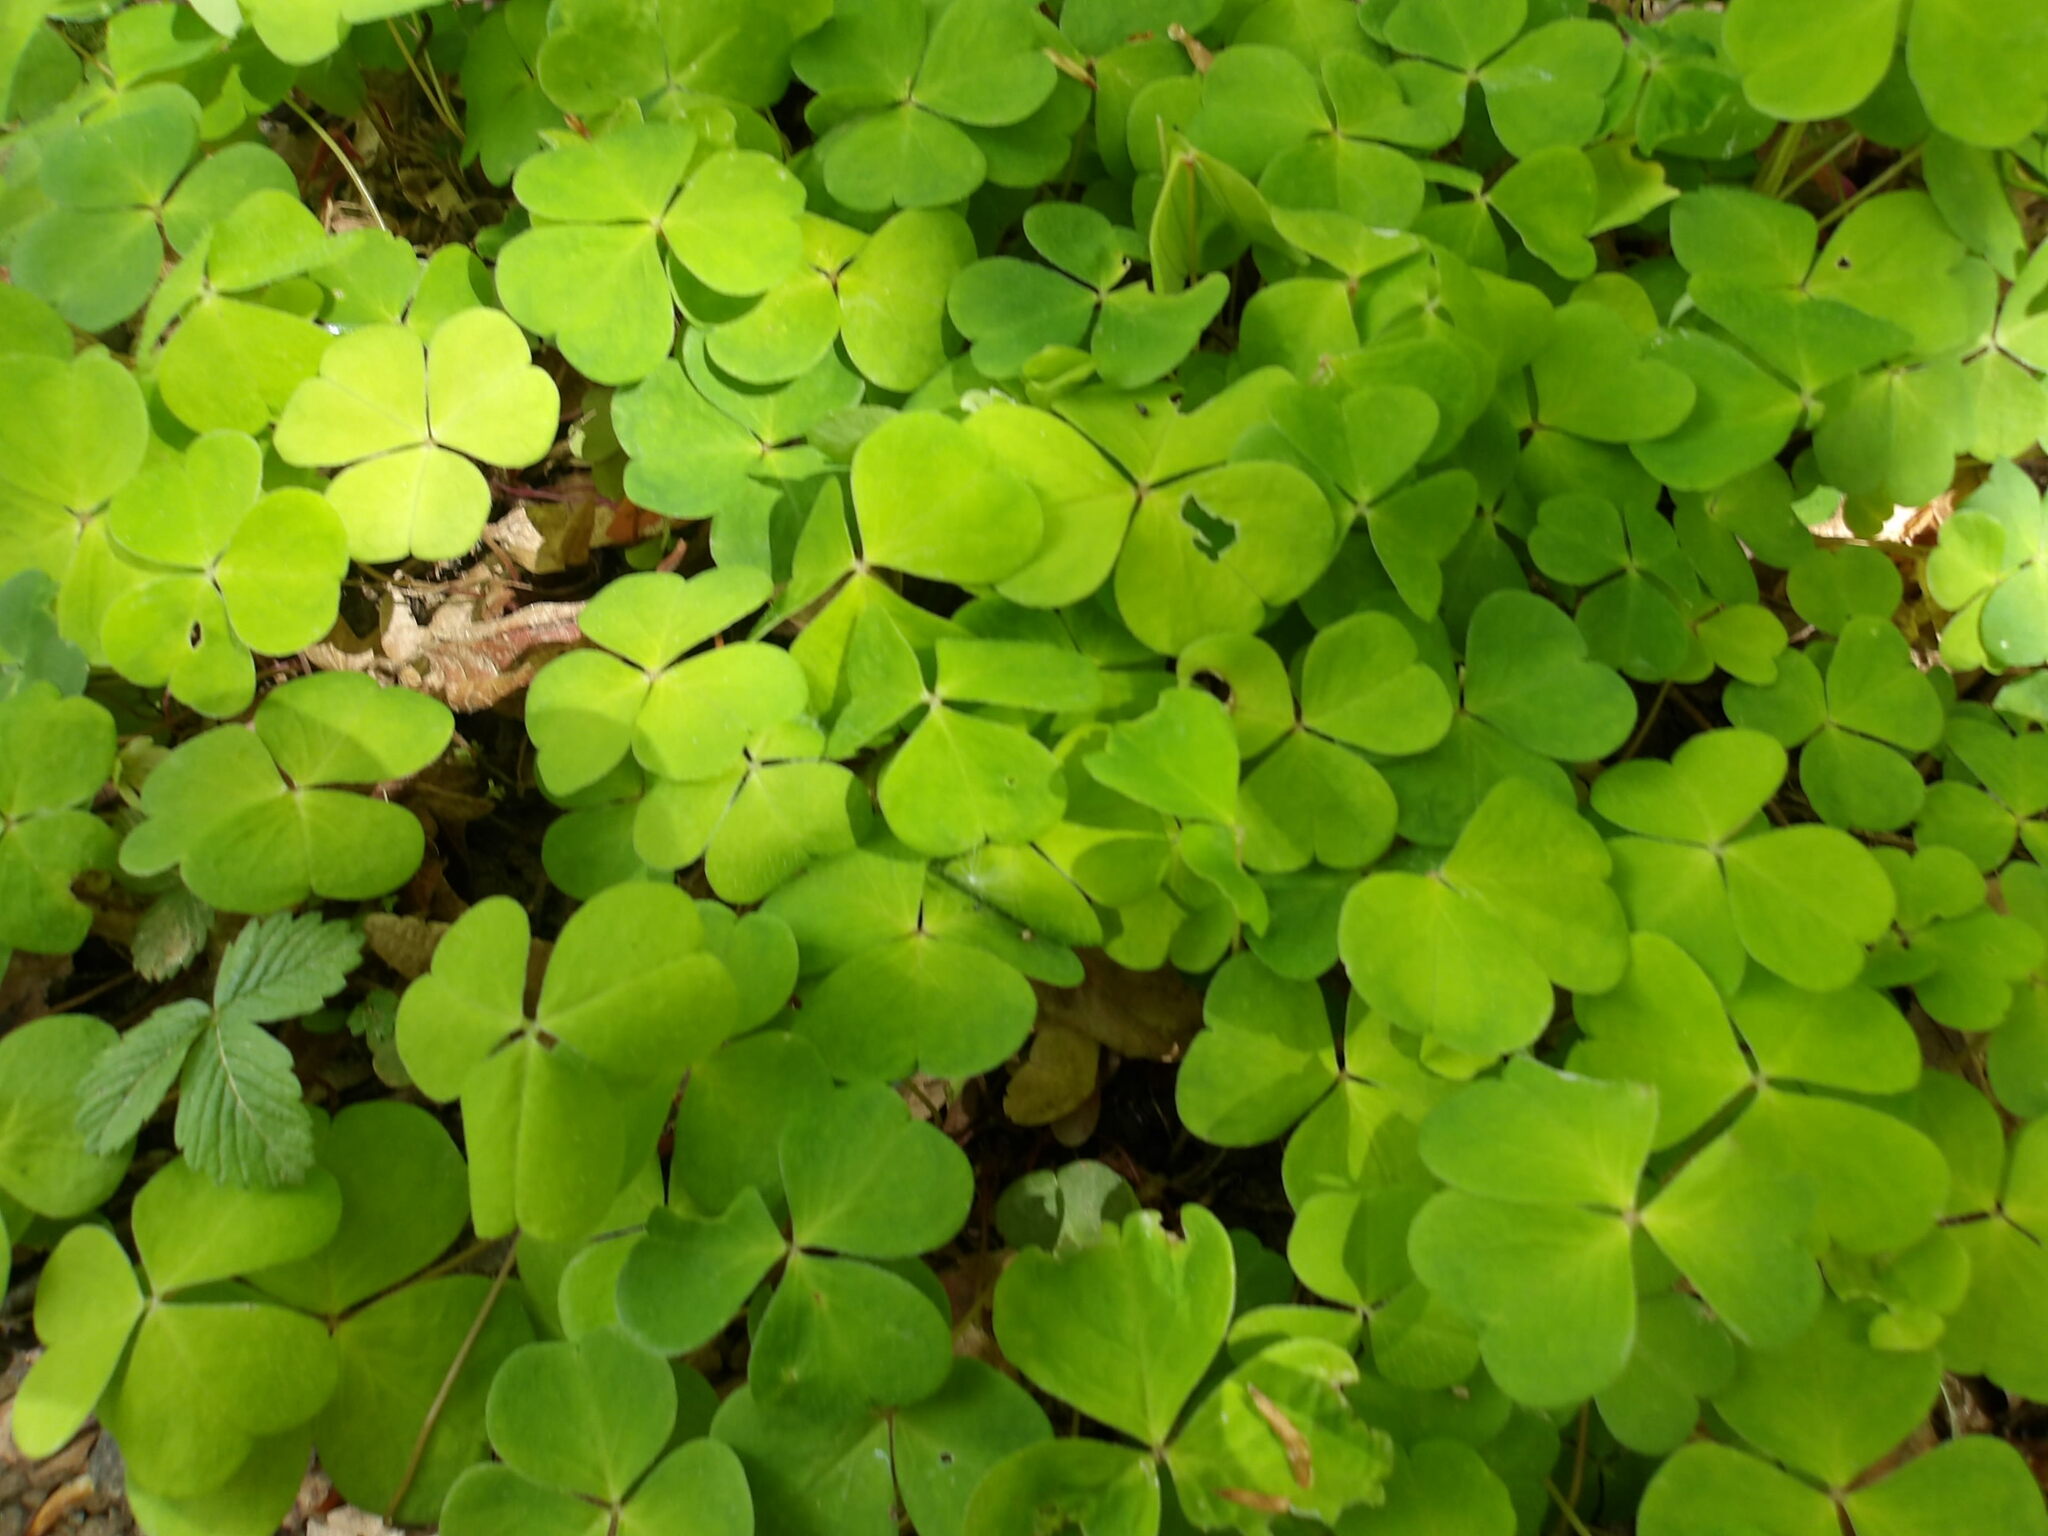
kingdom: Plantae
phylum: Tracheophyta
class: Magnoliopsida
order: Oxalidales
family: Oxalidaceae
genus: Oxalis
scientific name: Oxalis acetosella
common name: Wood-sorrel
